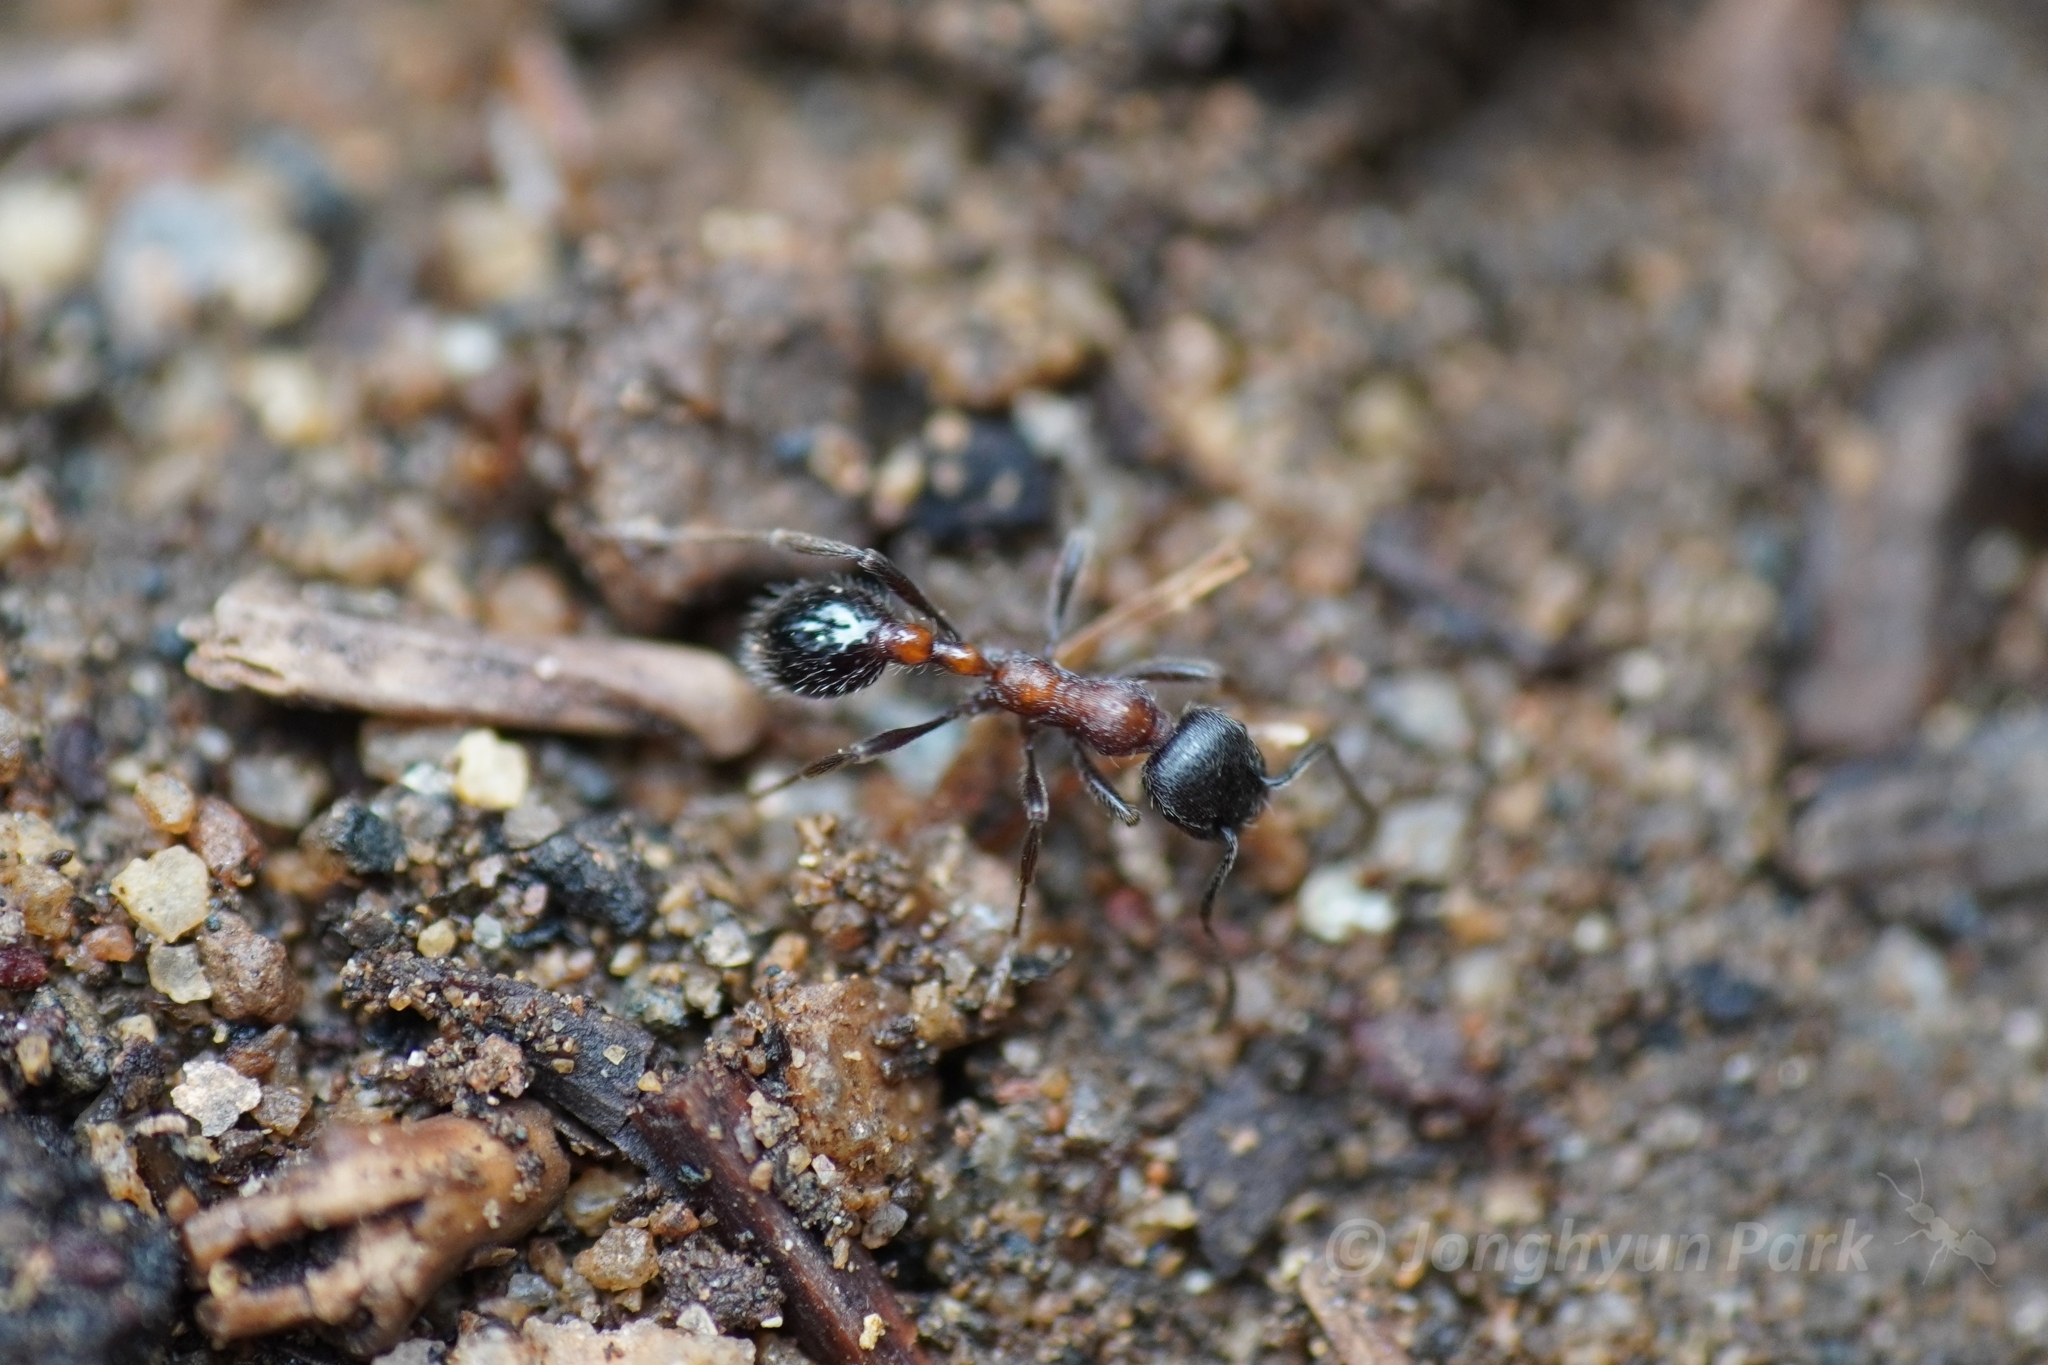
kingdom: Animalia
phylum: Arthropoda
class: Insecta
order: Hymenoptera
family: Formicidae
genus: Manica
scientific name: Manica bradleyi
